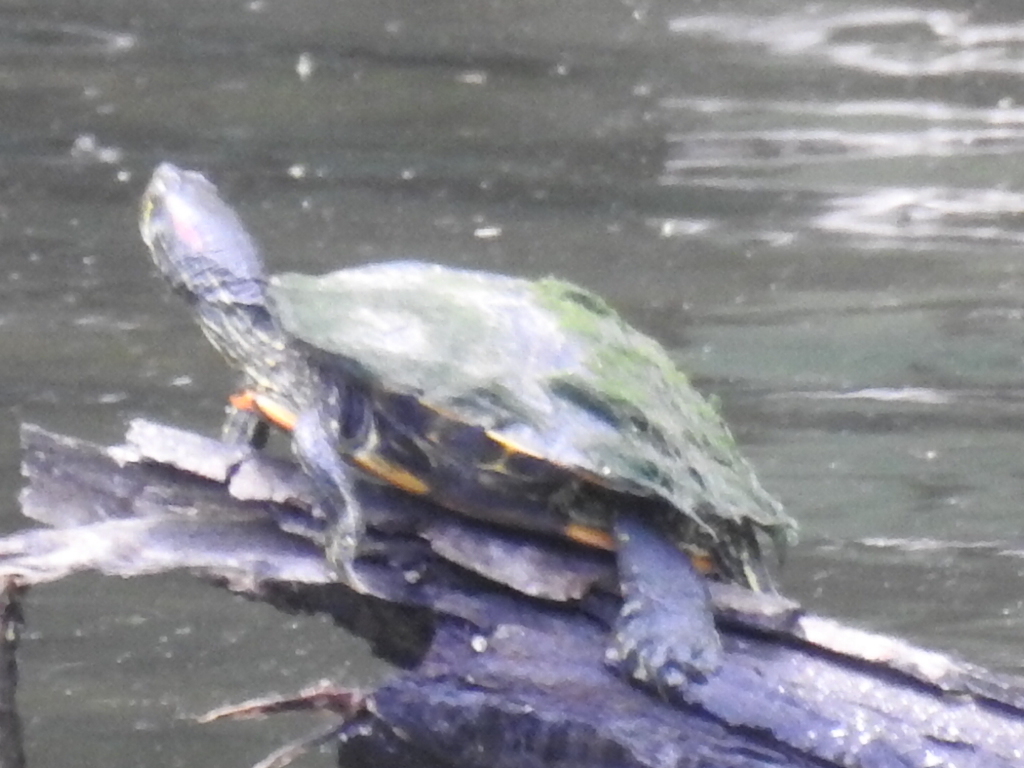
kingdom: Animalia
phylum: Chordata
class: Testudines
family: Emydidae
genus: Trachemys
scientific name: Trachemys scripta
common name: Slider
